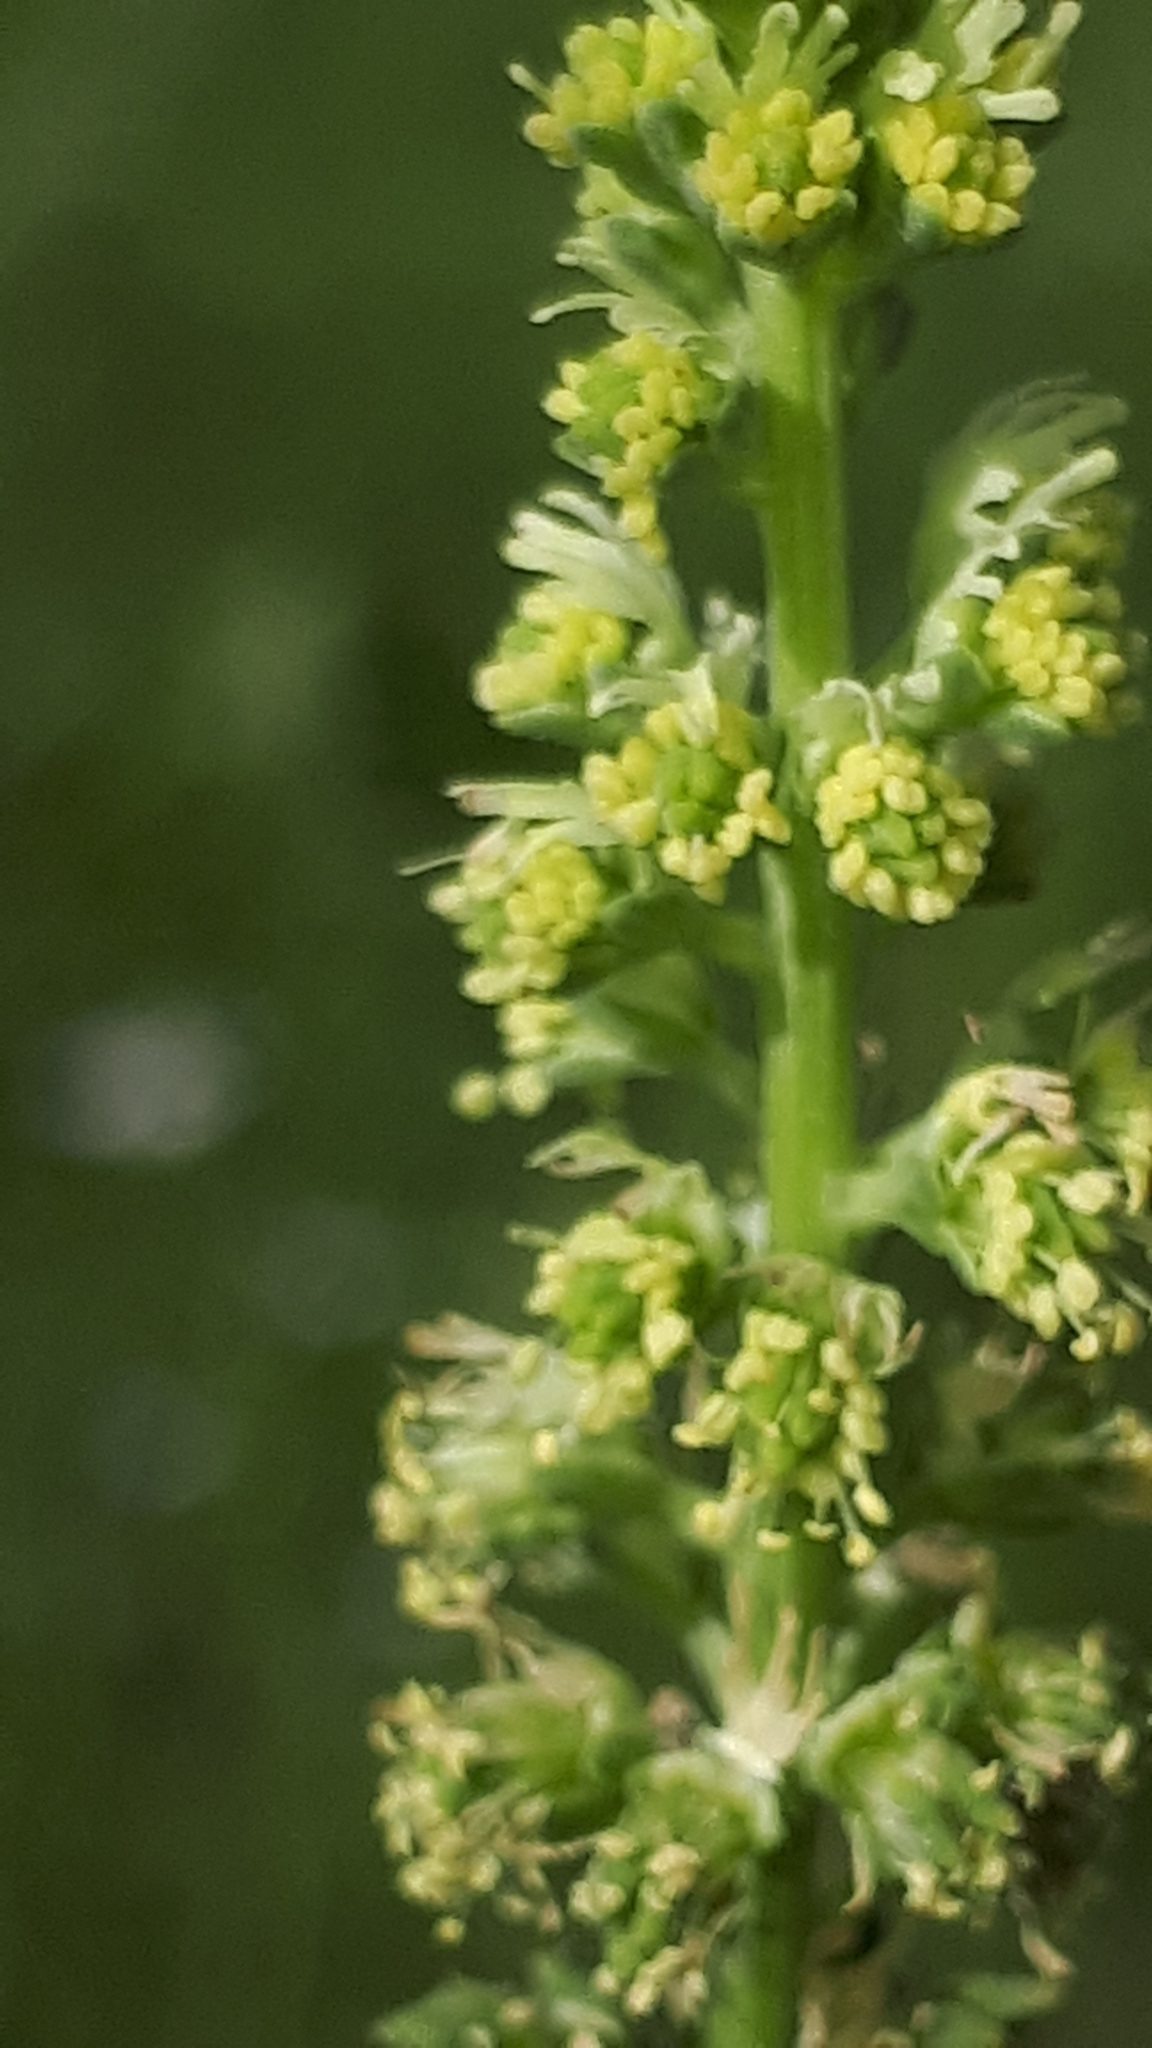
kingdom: Plantae
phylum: Tracheophyta
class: Magnoliopsida
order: Brassicales
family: Resedaceae
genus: Reseda
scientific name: Reseda luteola
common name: Weld
